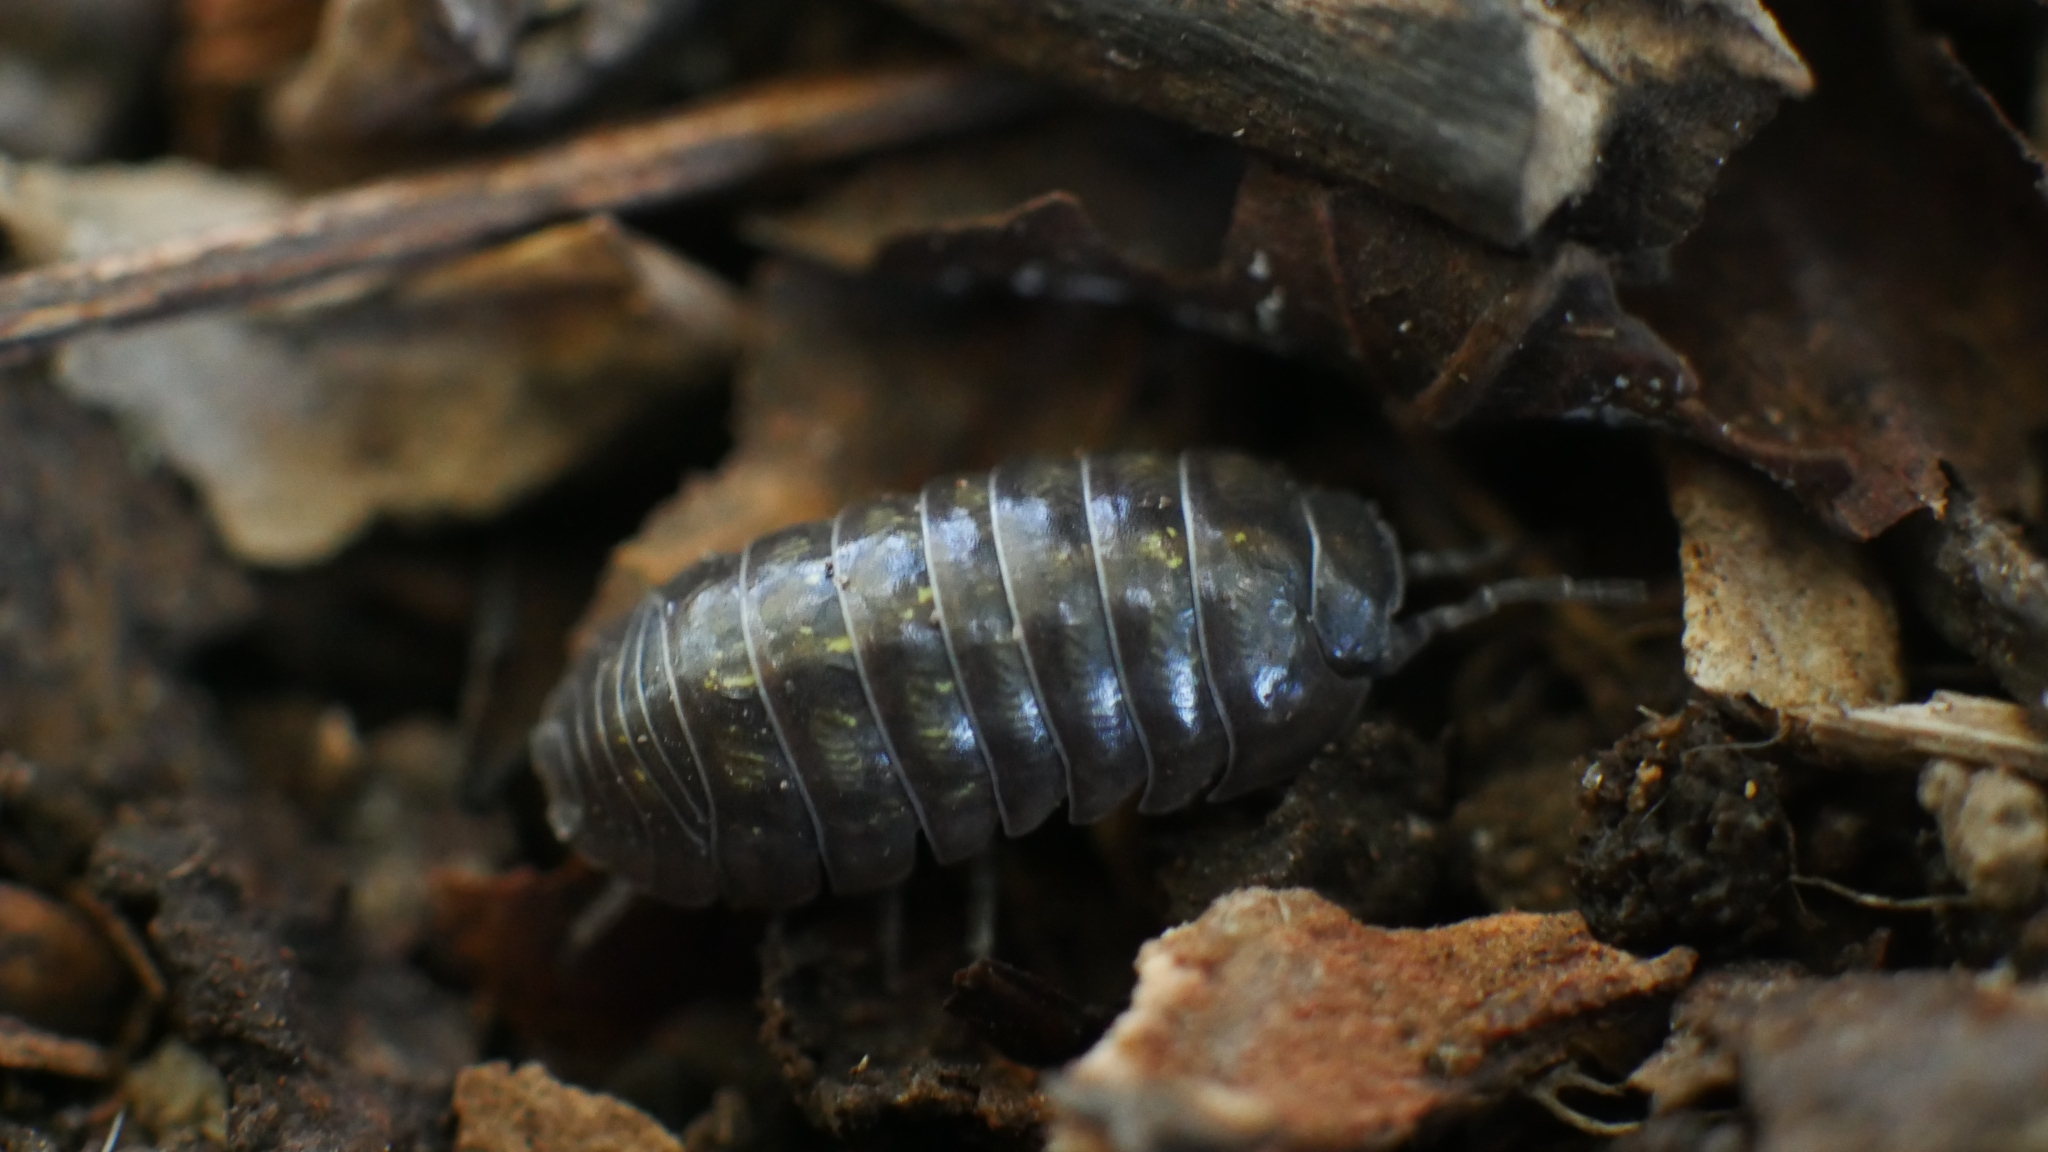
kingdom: Animalia
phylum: Arthropoda
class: Malacostraca
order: Isopoda
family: Armadillidiidae
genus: Armadillidium
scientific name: Armadillidium vulgare
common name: Common pill woodlouse
